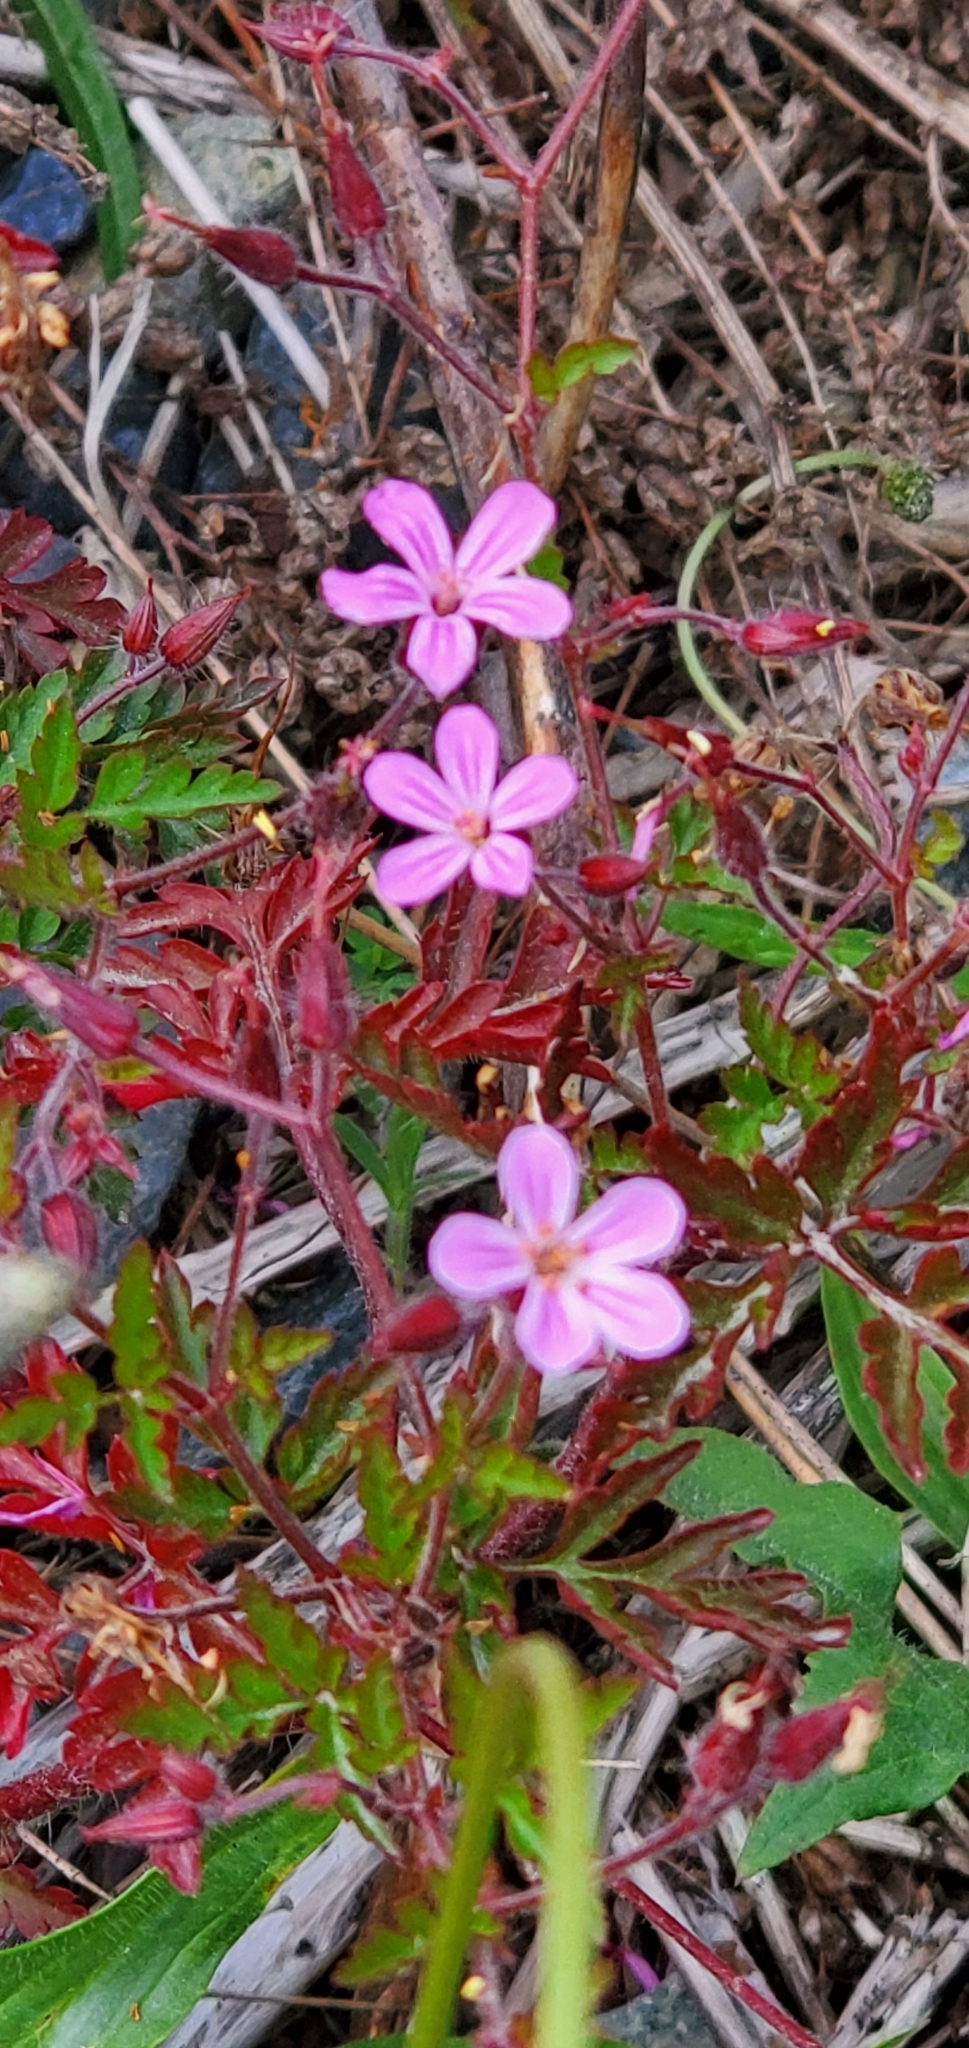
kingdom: Plantae
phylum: Tracheophyta
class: Magnoliopsida
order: Geraniales
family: Geraniaceae
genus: Geranium
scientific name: Geranium robertianum
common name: Herb-robert
